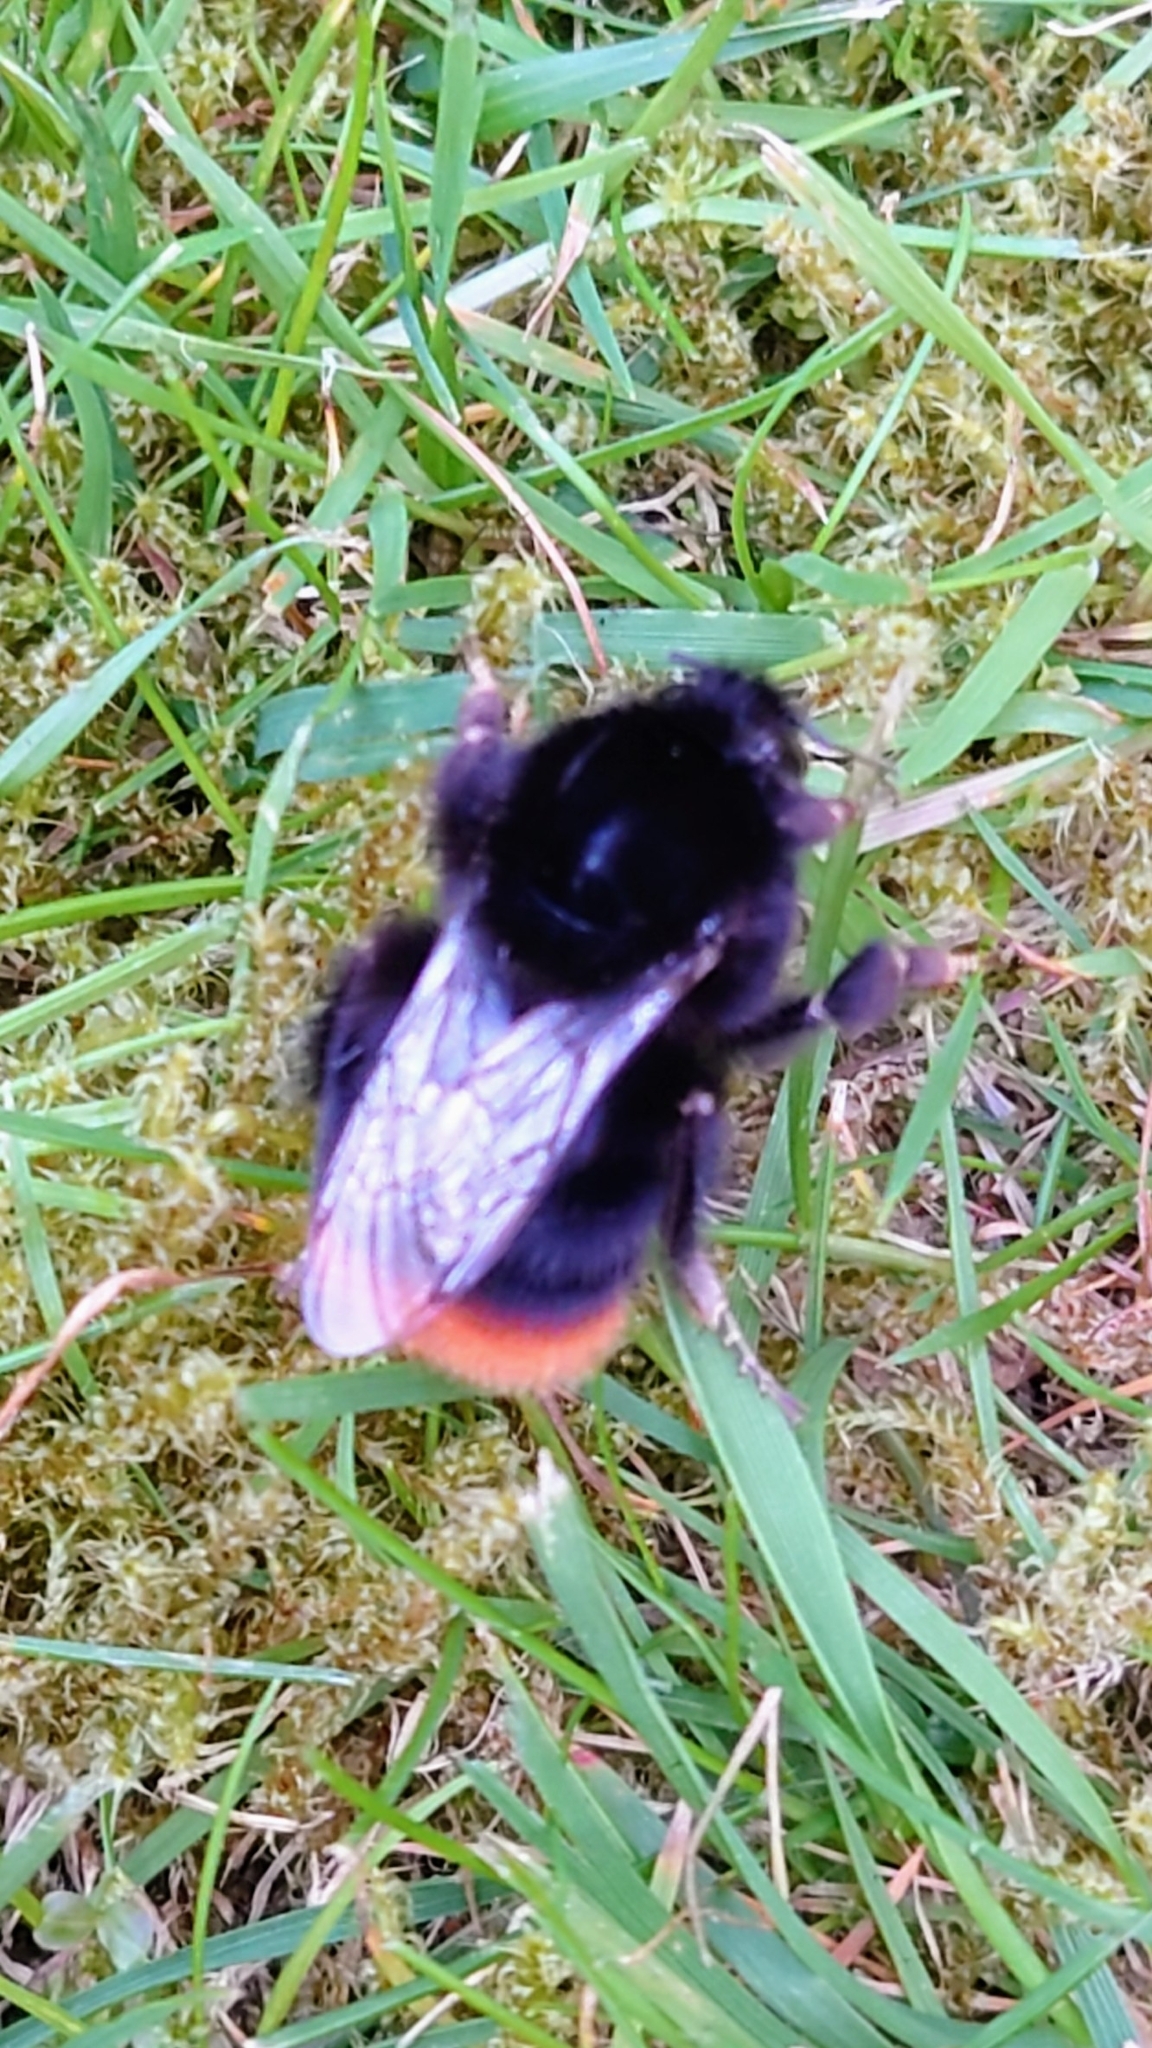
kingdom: Animalia
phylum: Arthropoda
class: Insecta
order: Hymenoptera
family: Apidae
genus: Bombus
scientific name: Bombus lapidarius
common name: Large red-tailed humble-bee
